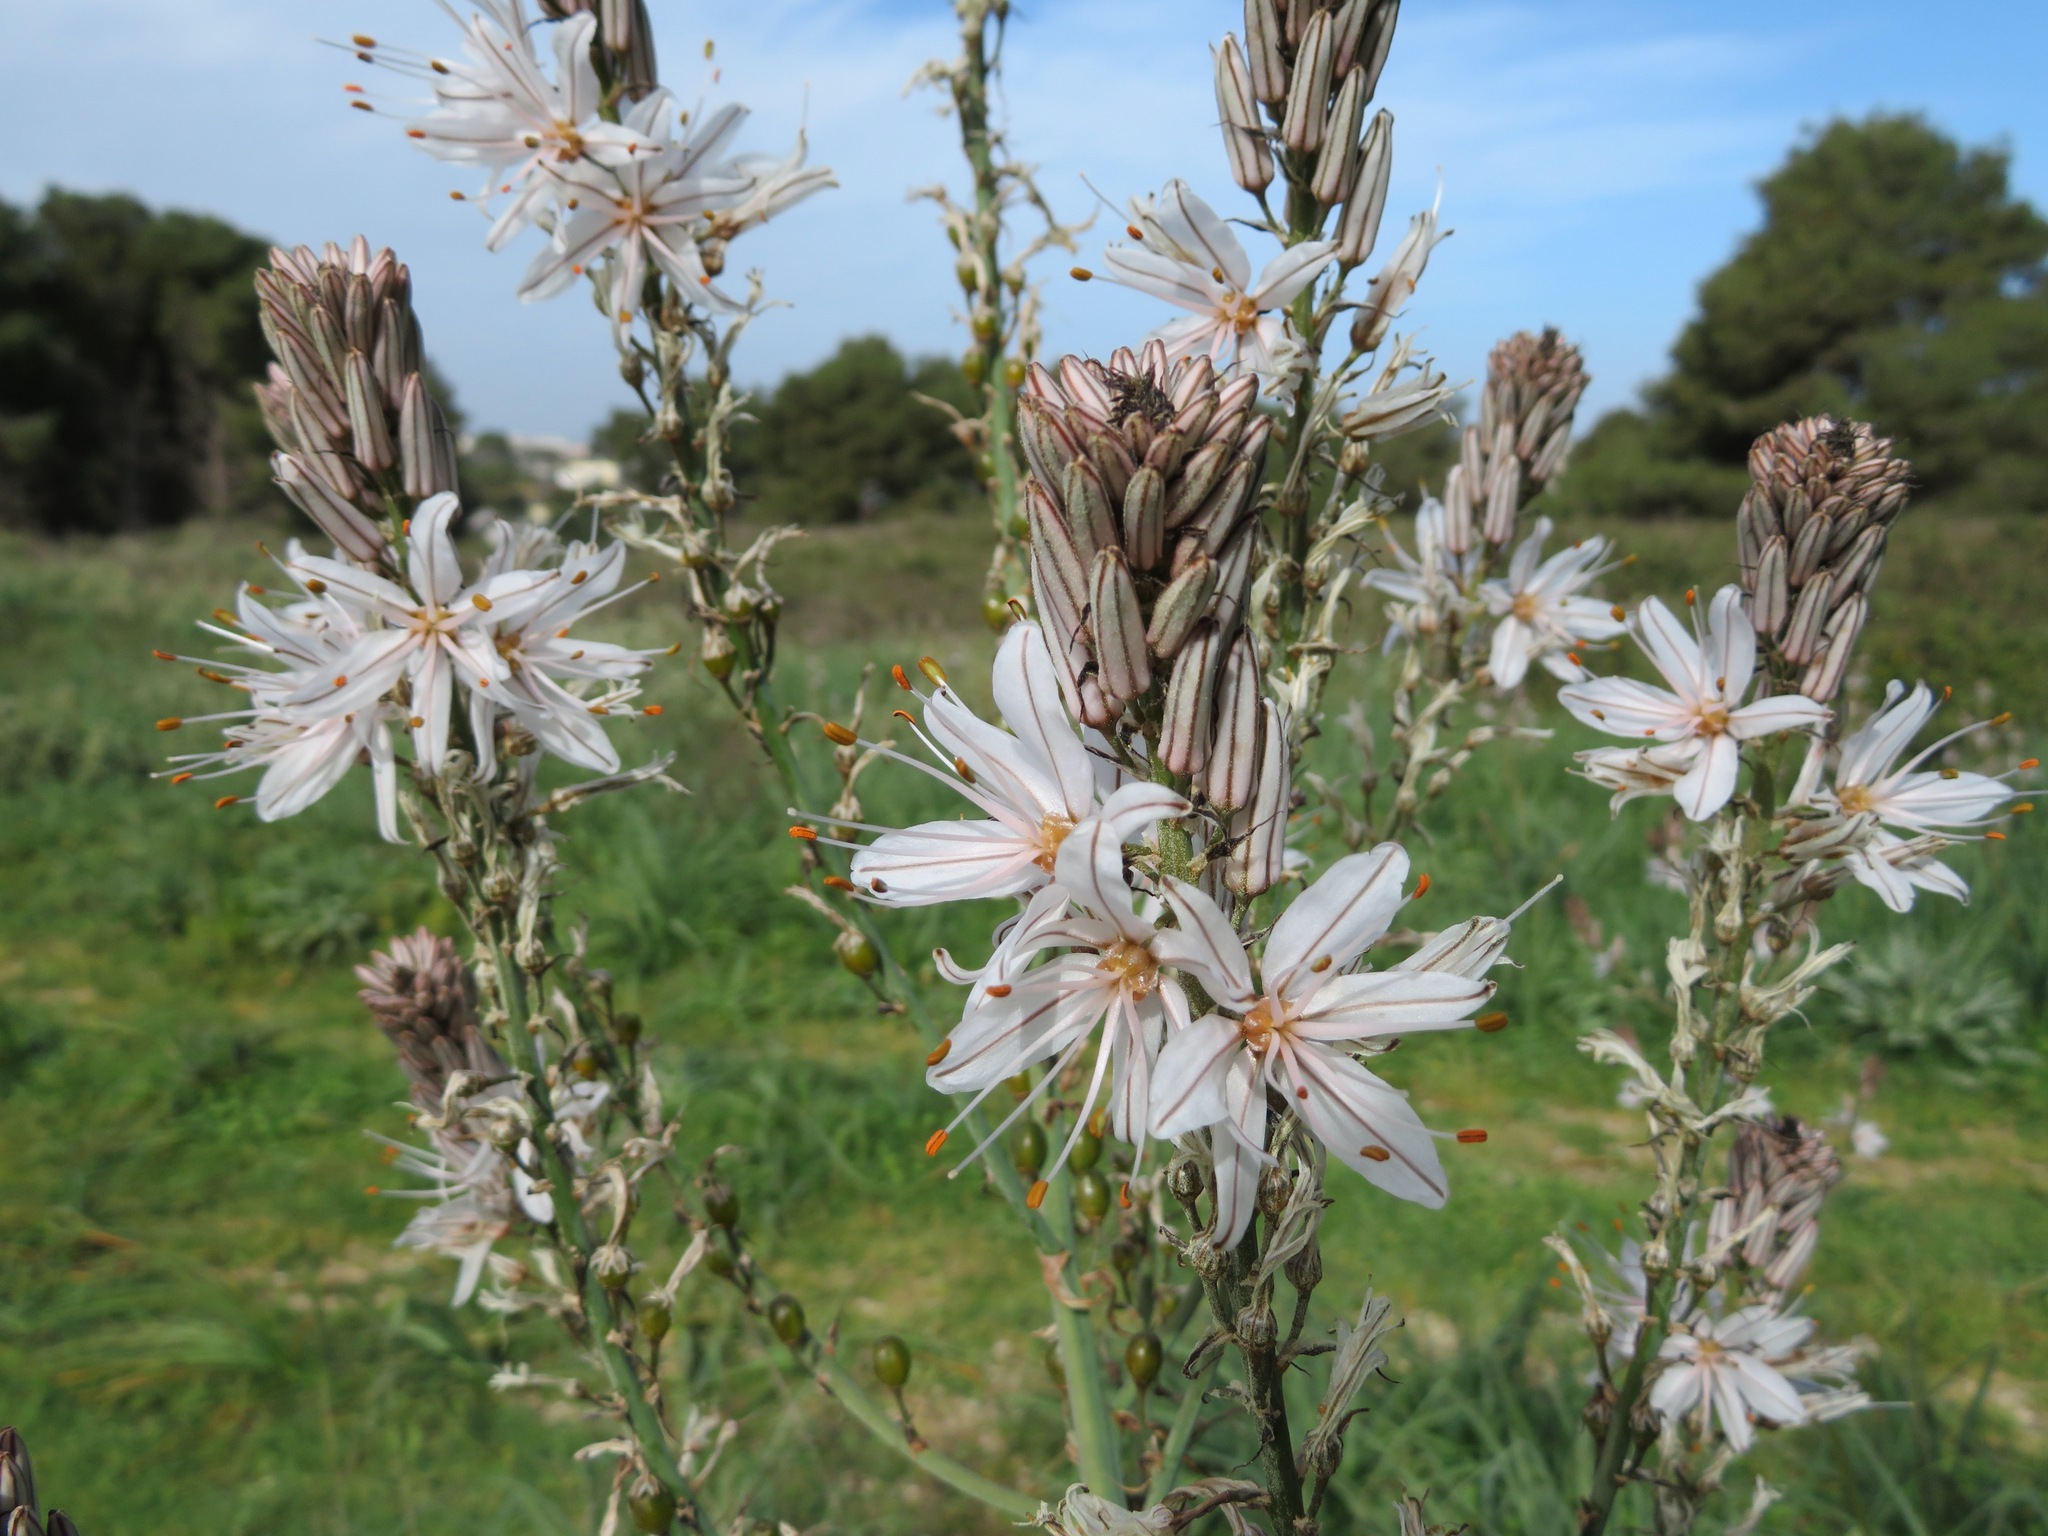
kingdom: Plantae
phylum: Tracheophyta
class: Liliopsida
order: Asparagales
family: Asphodelaceae
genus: Asphodelus
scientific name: Asphodelus ramosus
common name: Silverrod
